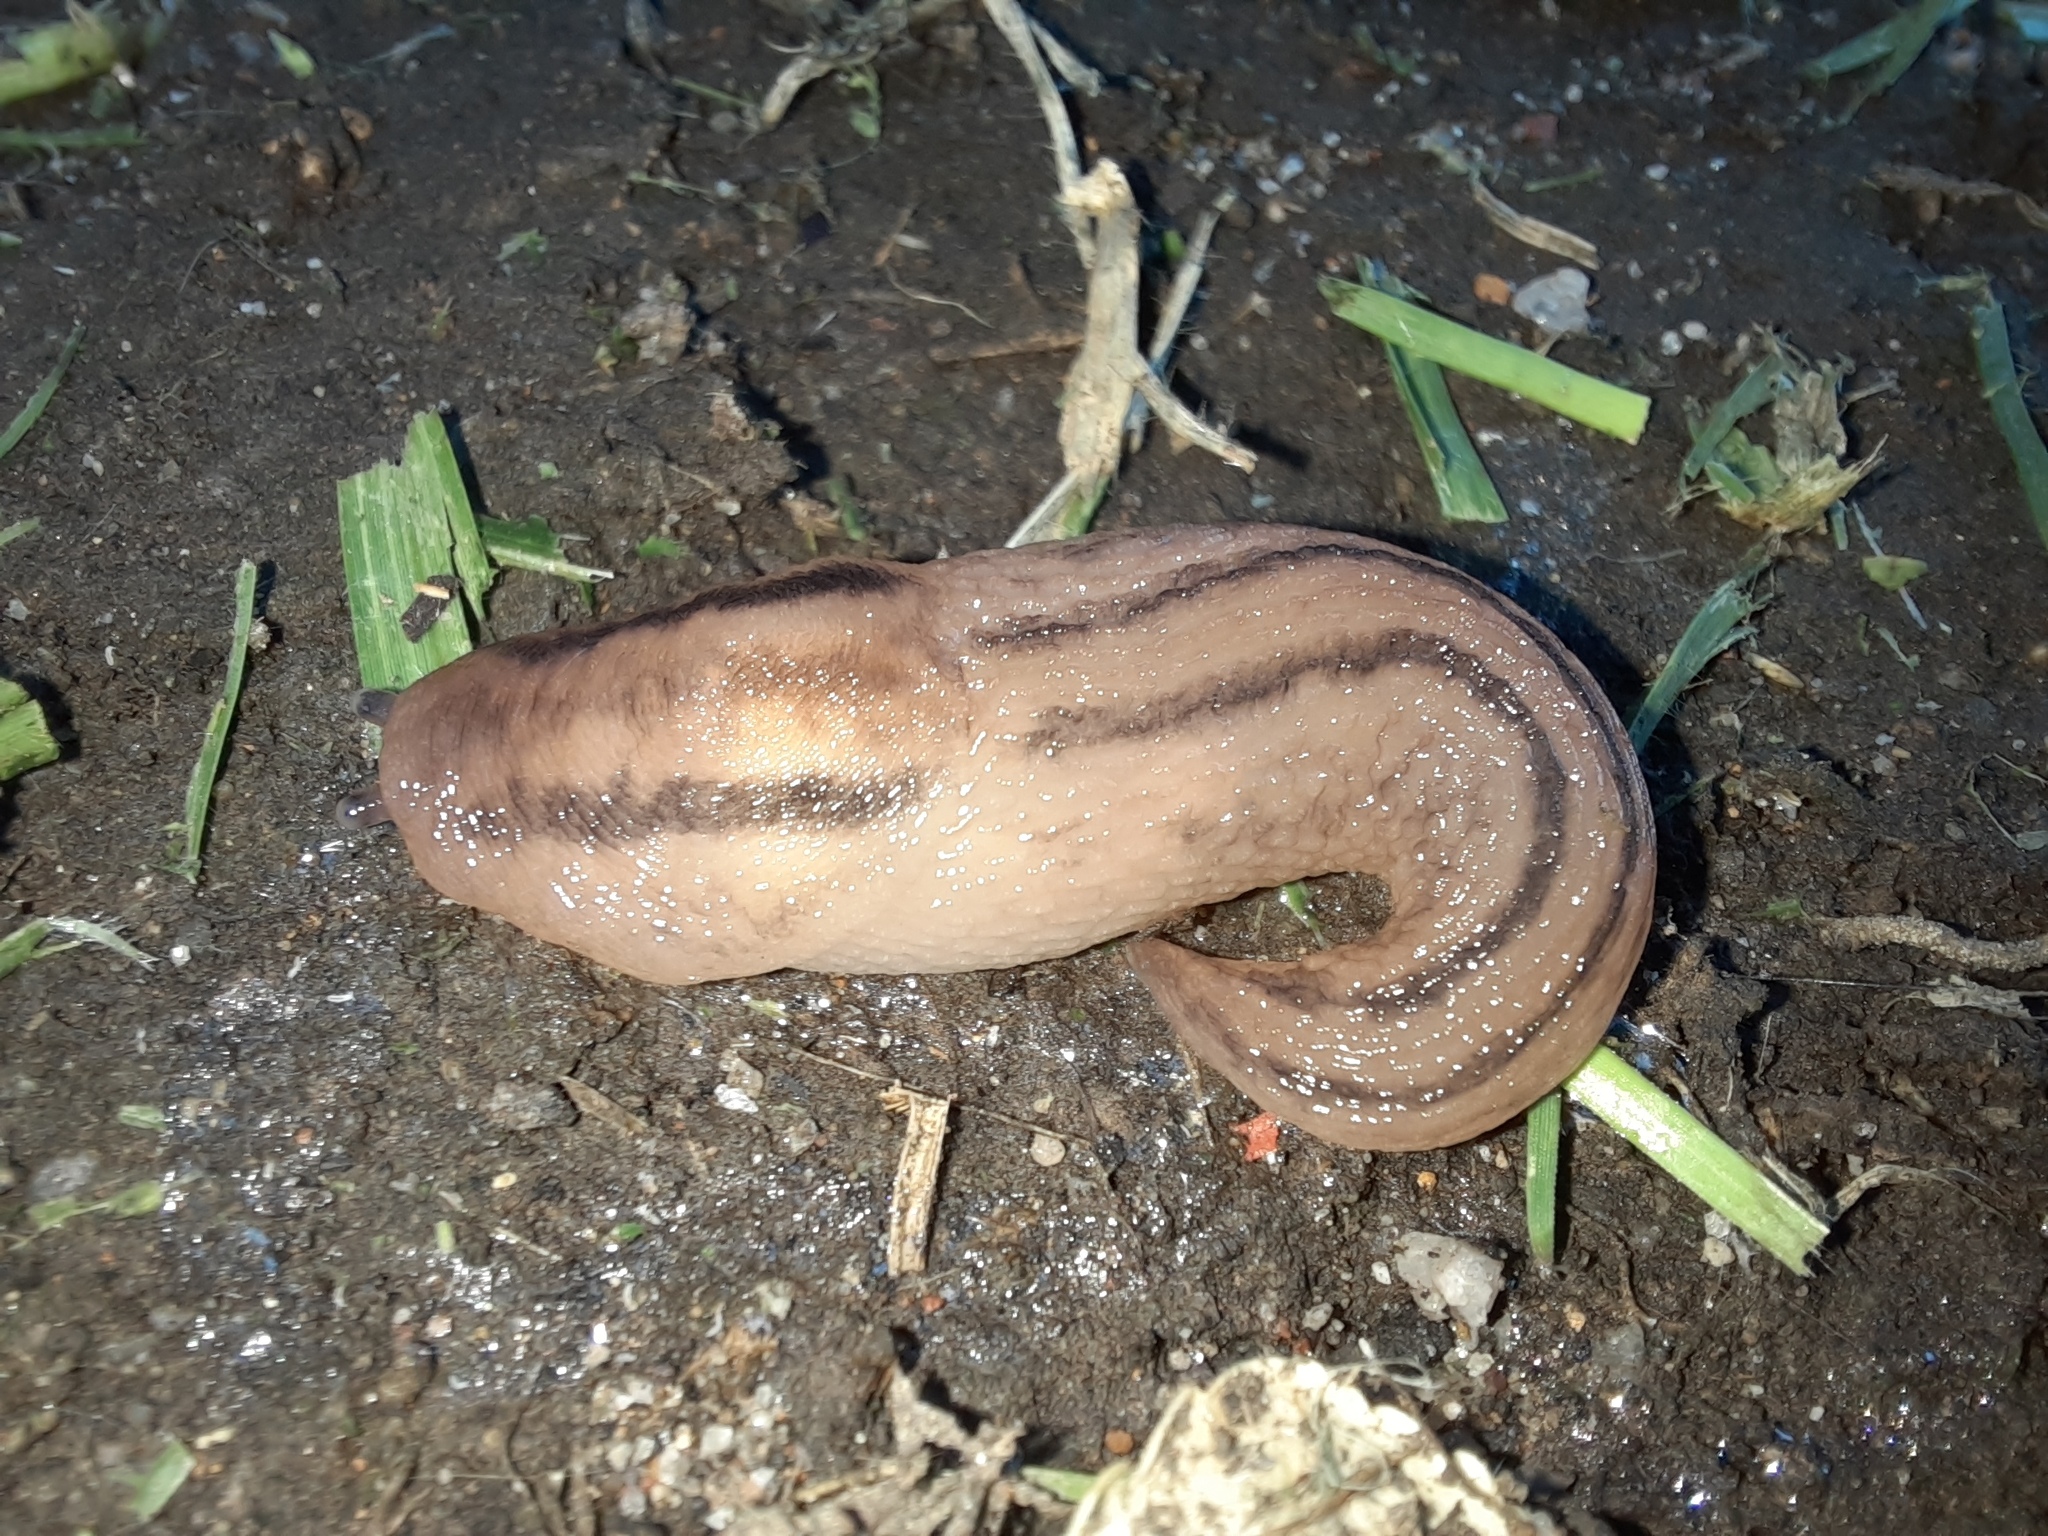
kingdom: Animalia
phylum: Mollusca
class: Gastropoda
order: Stylommatophora
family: Limacidae
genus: Ambigolimax
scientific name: Ambigolimax
